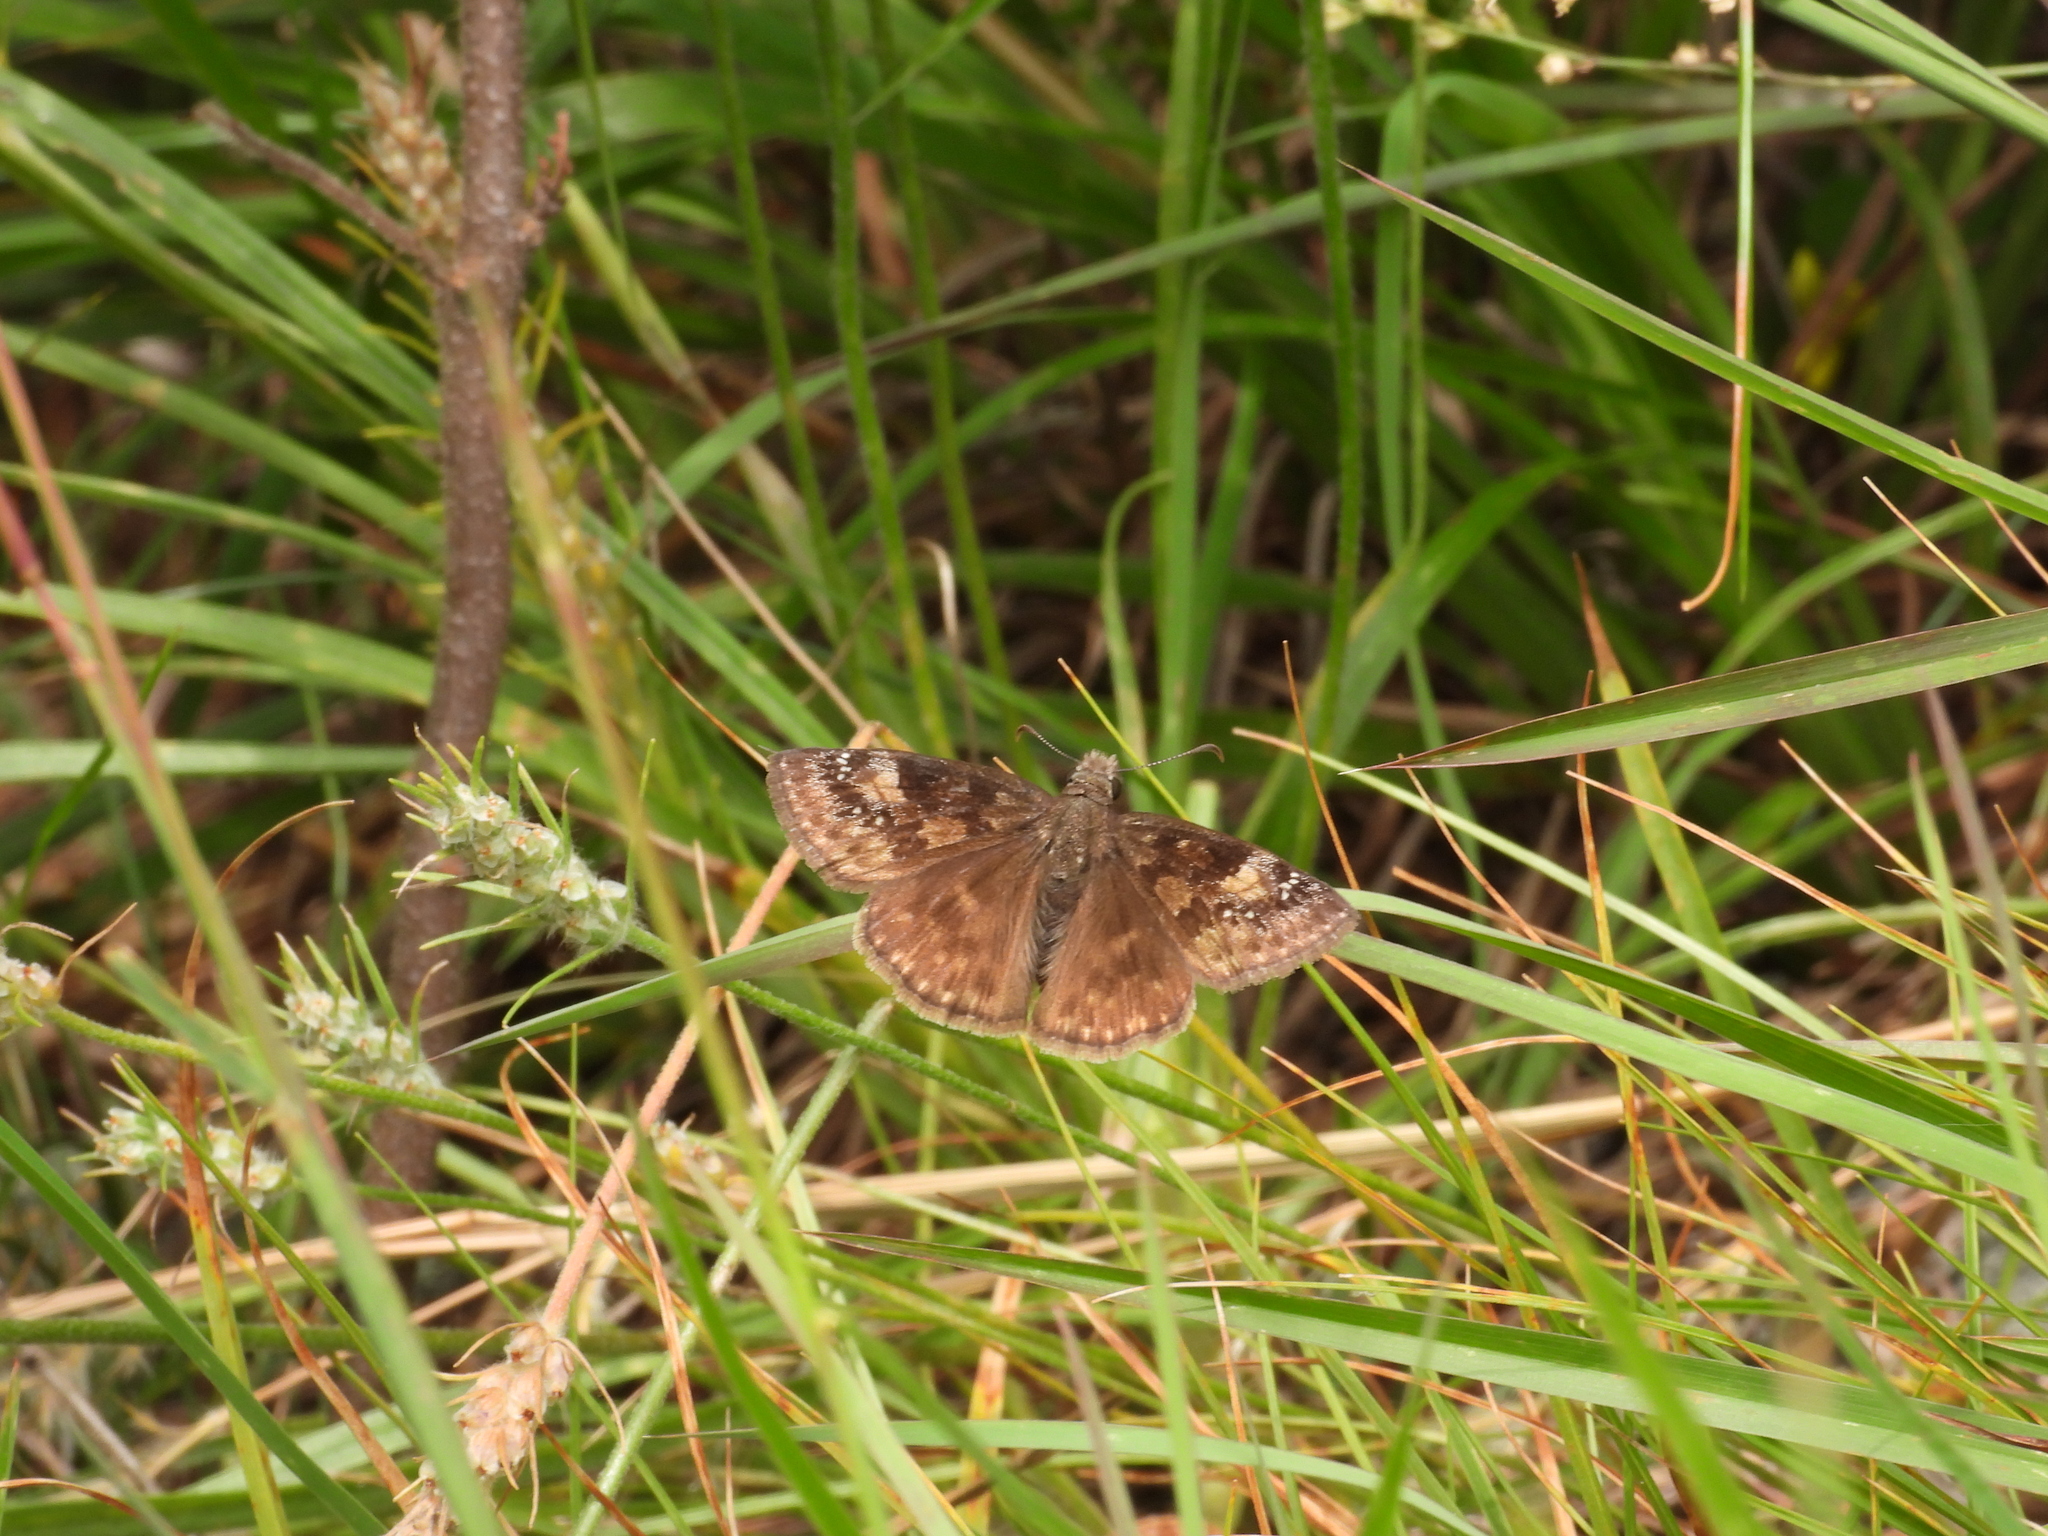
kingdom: Animalia
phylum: Arthropoda
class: Insecta
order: Lepidoptera
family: Hesperiidae
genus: Erynnis
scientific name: Erynnis baptisiae
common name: Wild indigo duskywing
